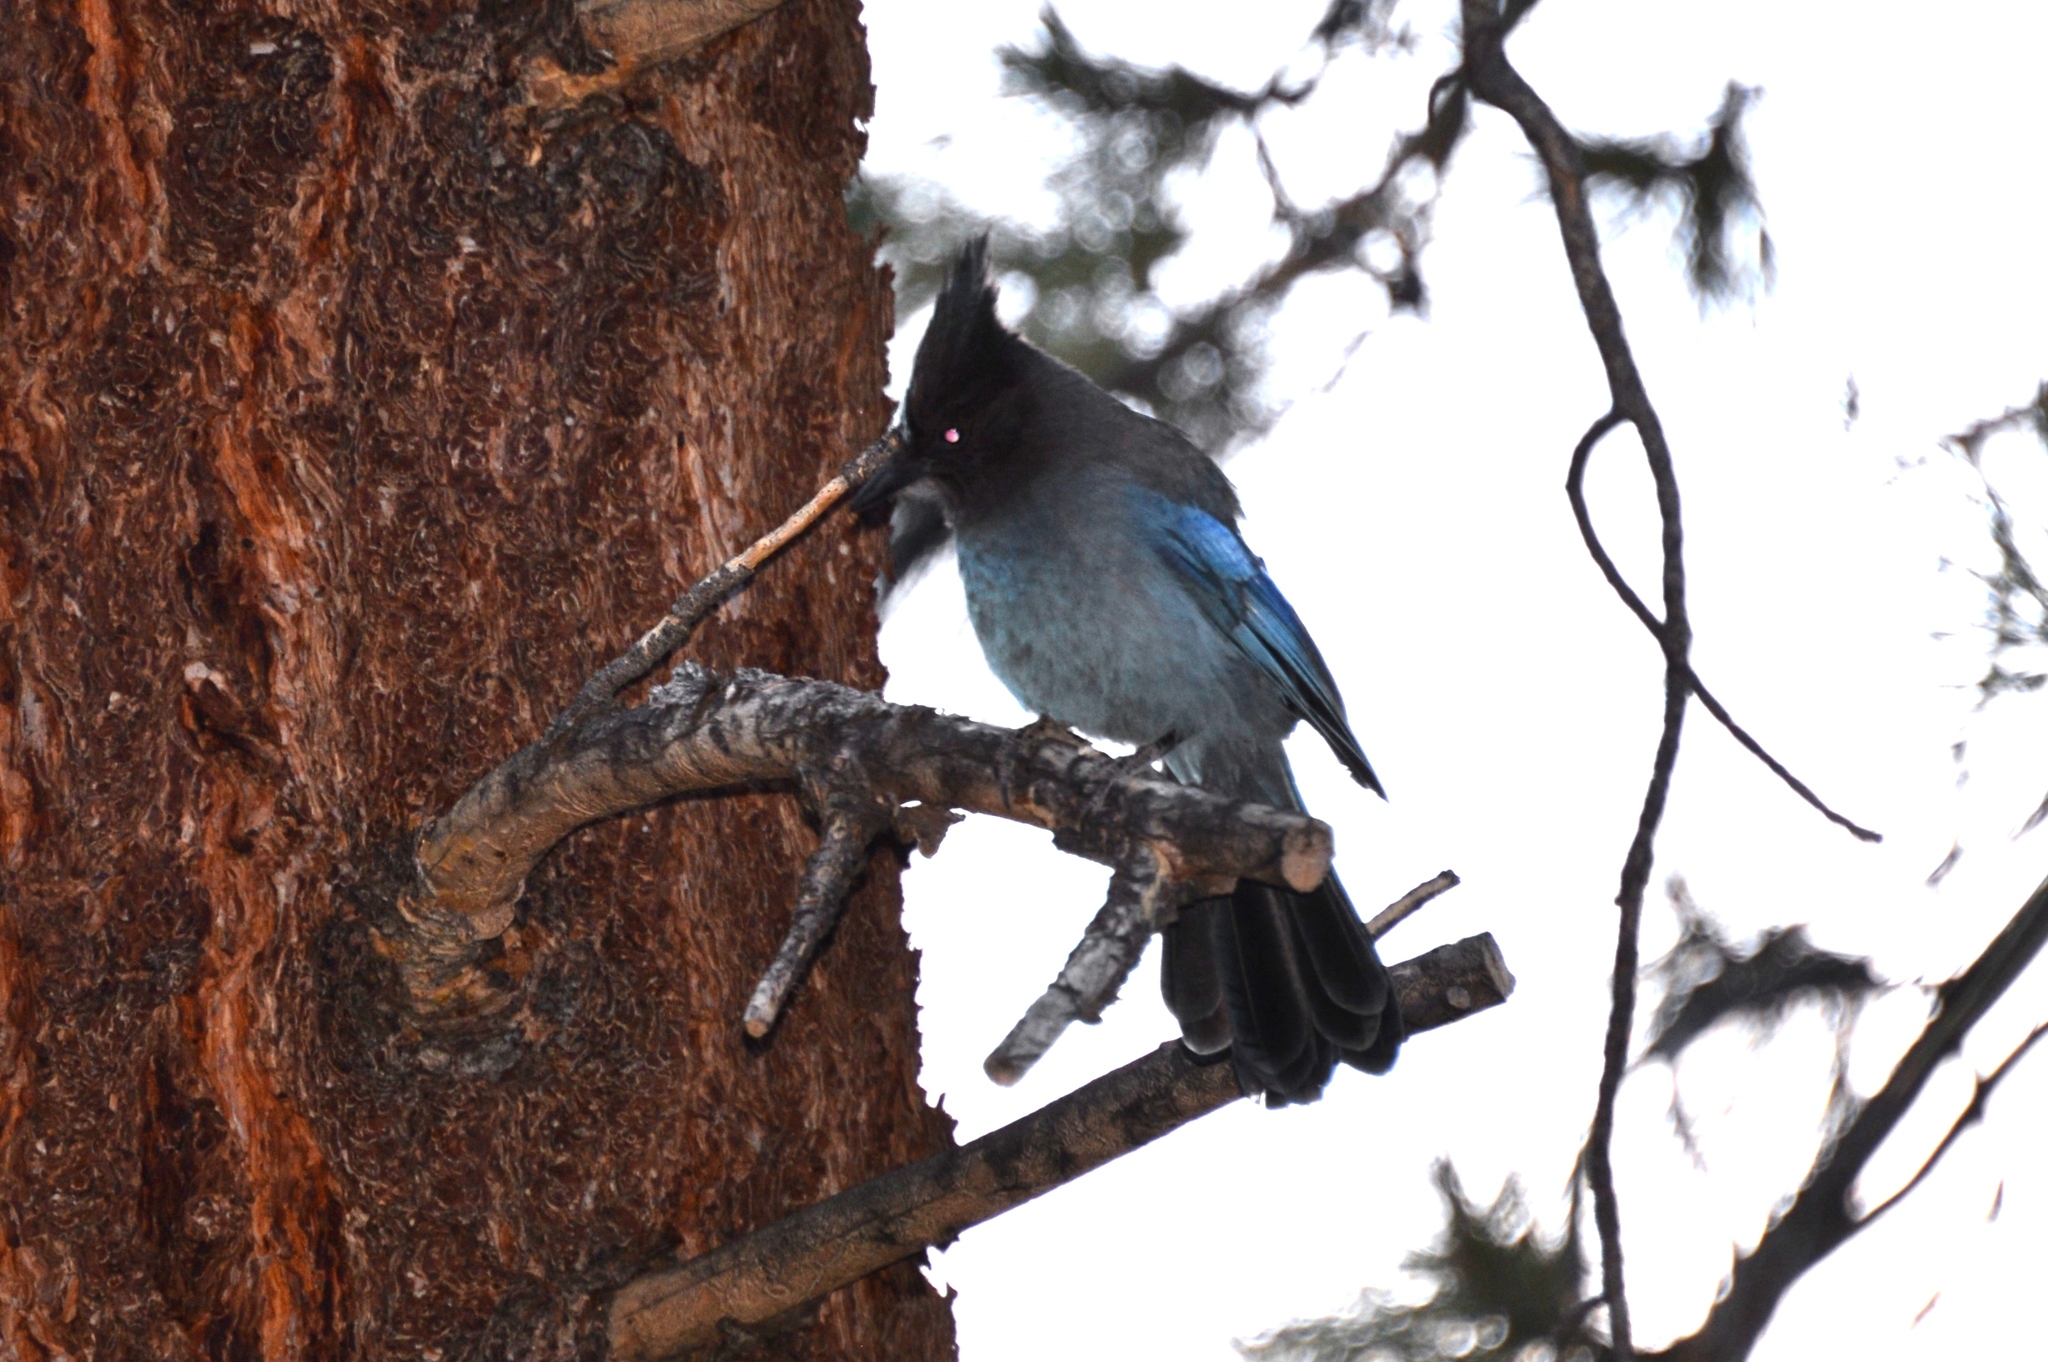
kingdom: Animalia
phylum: Chordata
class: Aves
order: Passeriformes
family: Corvidae
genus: Cyanocitta
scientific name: Cyanocitta stelleri
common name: Steller's jay
